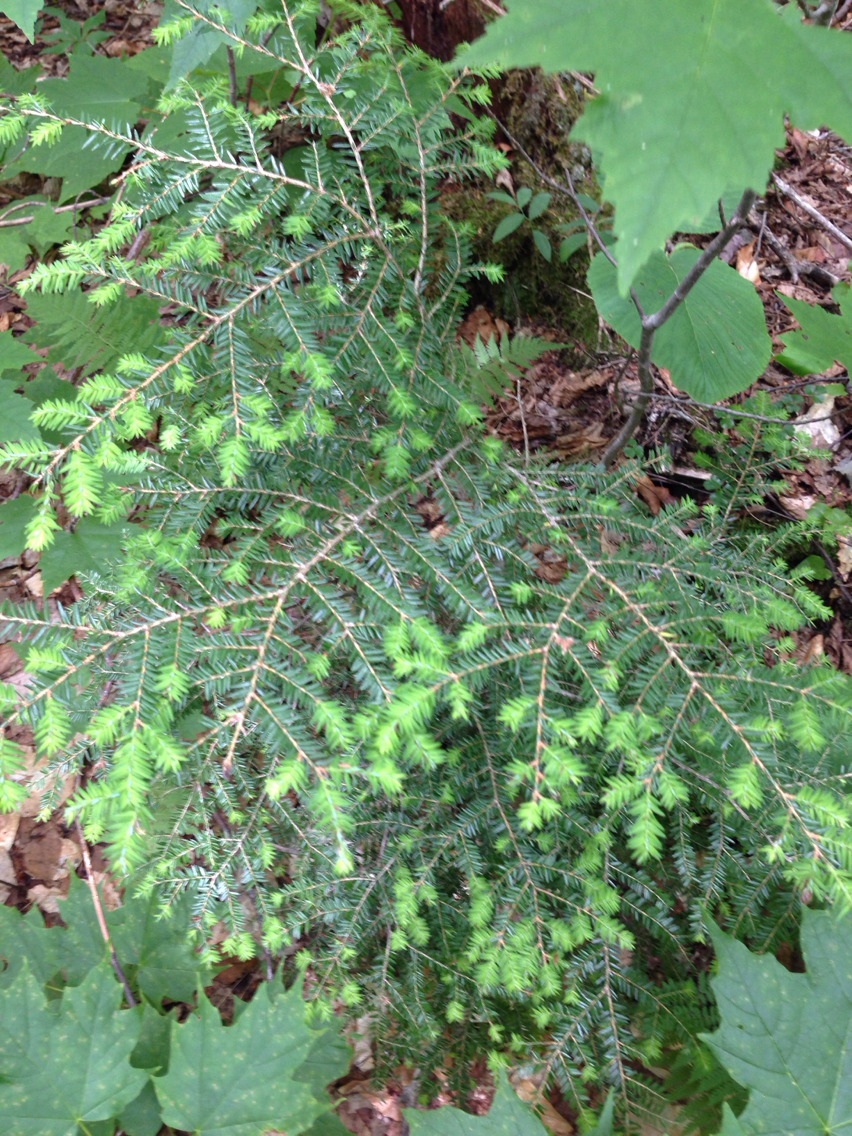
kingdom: Plantae
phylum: Tracheophyta
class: Pinopsida
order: Pinales
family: Pinaceae
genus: Tsuga
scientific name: Tsuga canadensis
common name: Eastern hemlock
